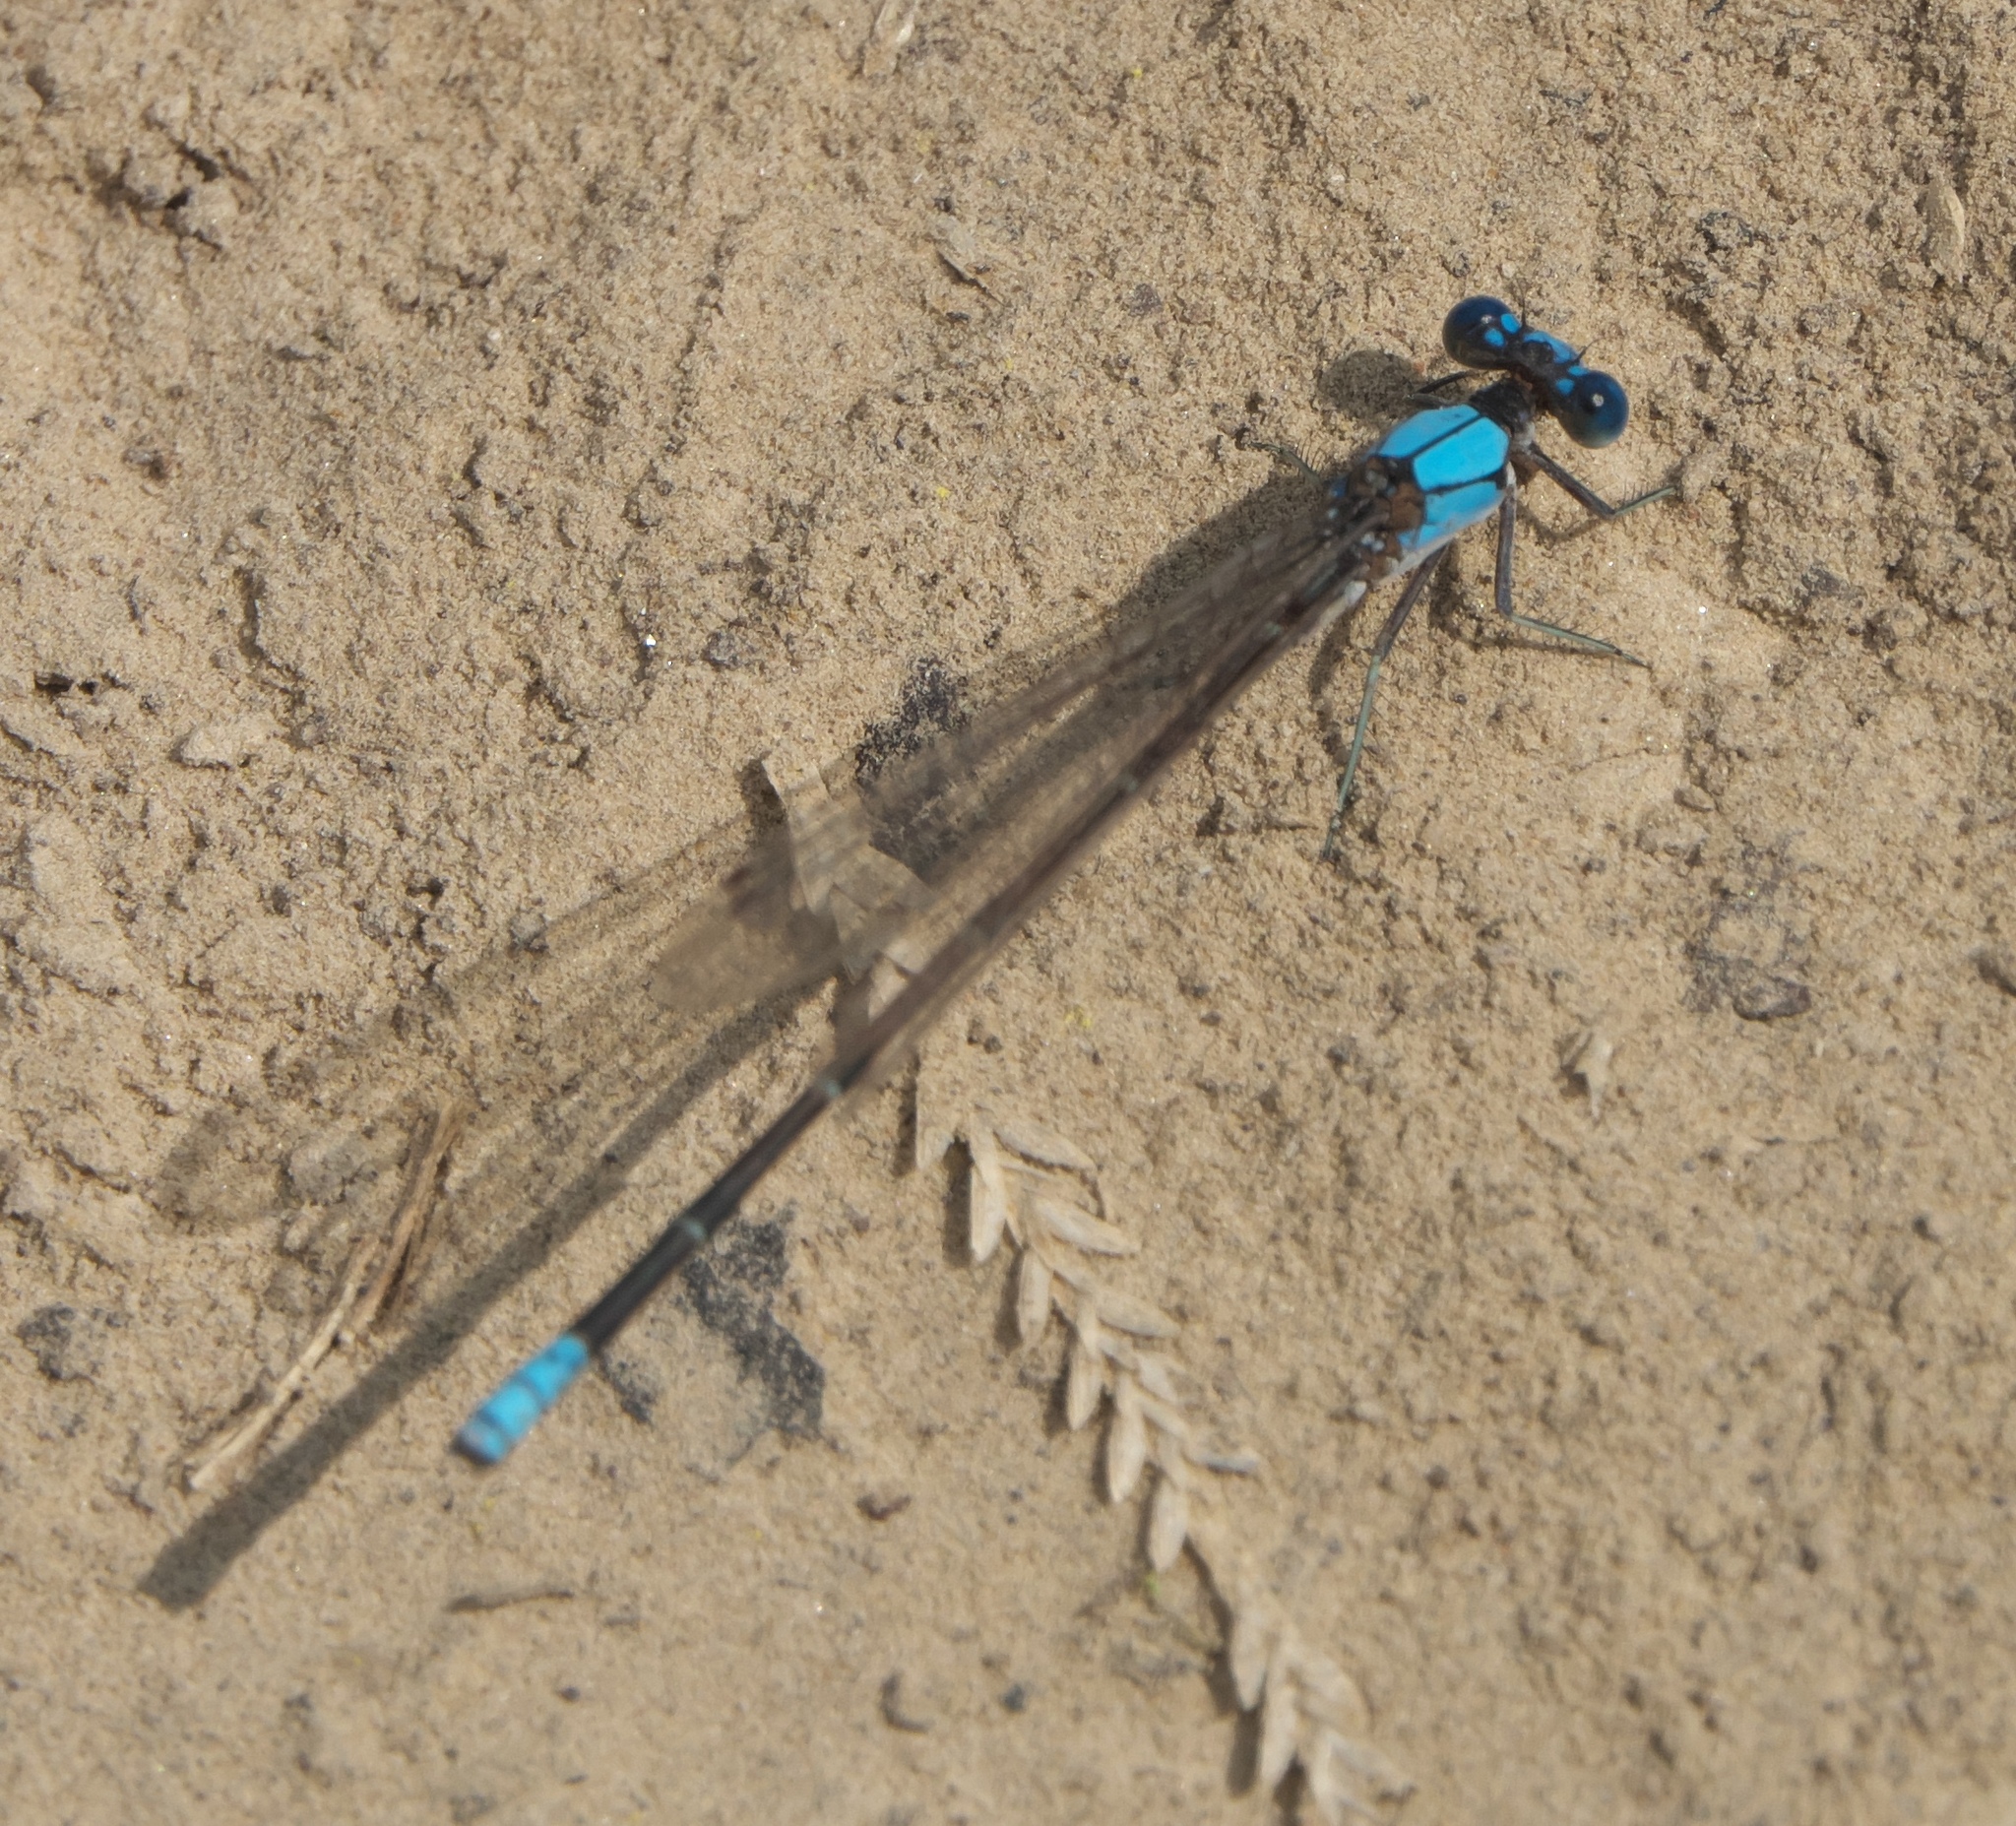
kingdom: Animalia
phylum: Arthropoda
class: Insecta
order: Odonata
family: Coenagrionidae
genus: Argia
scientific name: Argia apicalis
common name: Blue-fronted dancer
